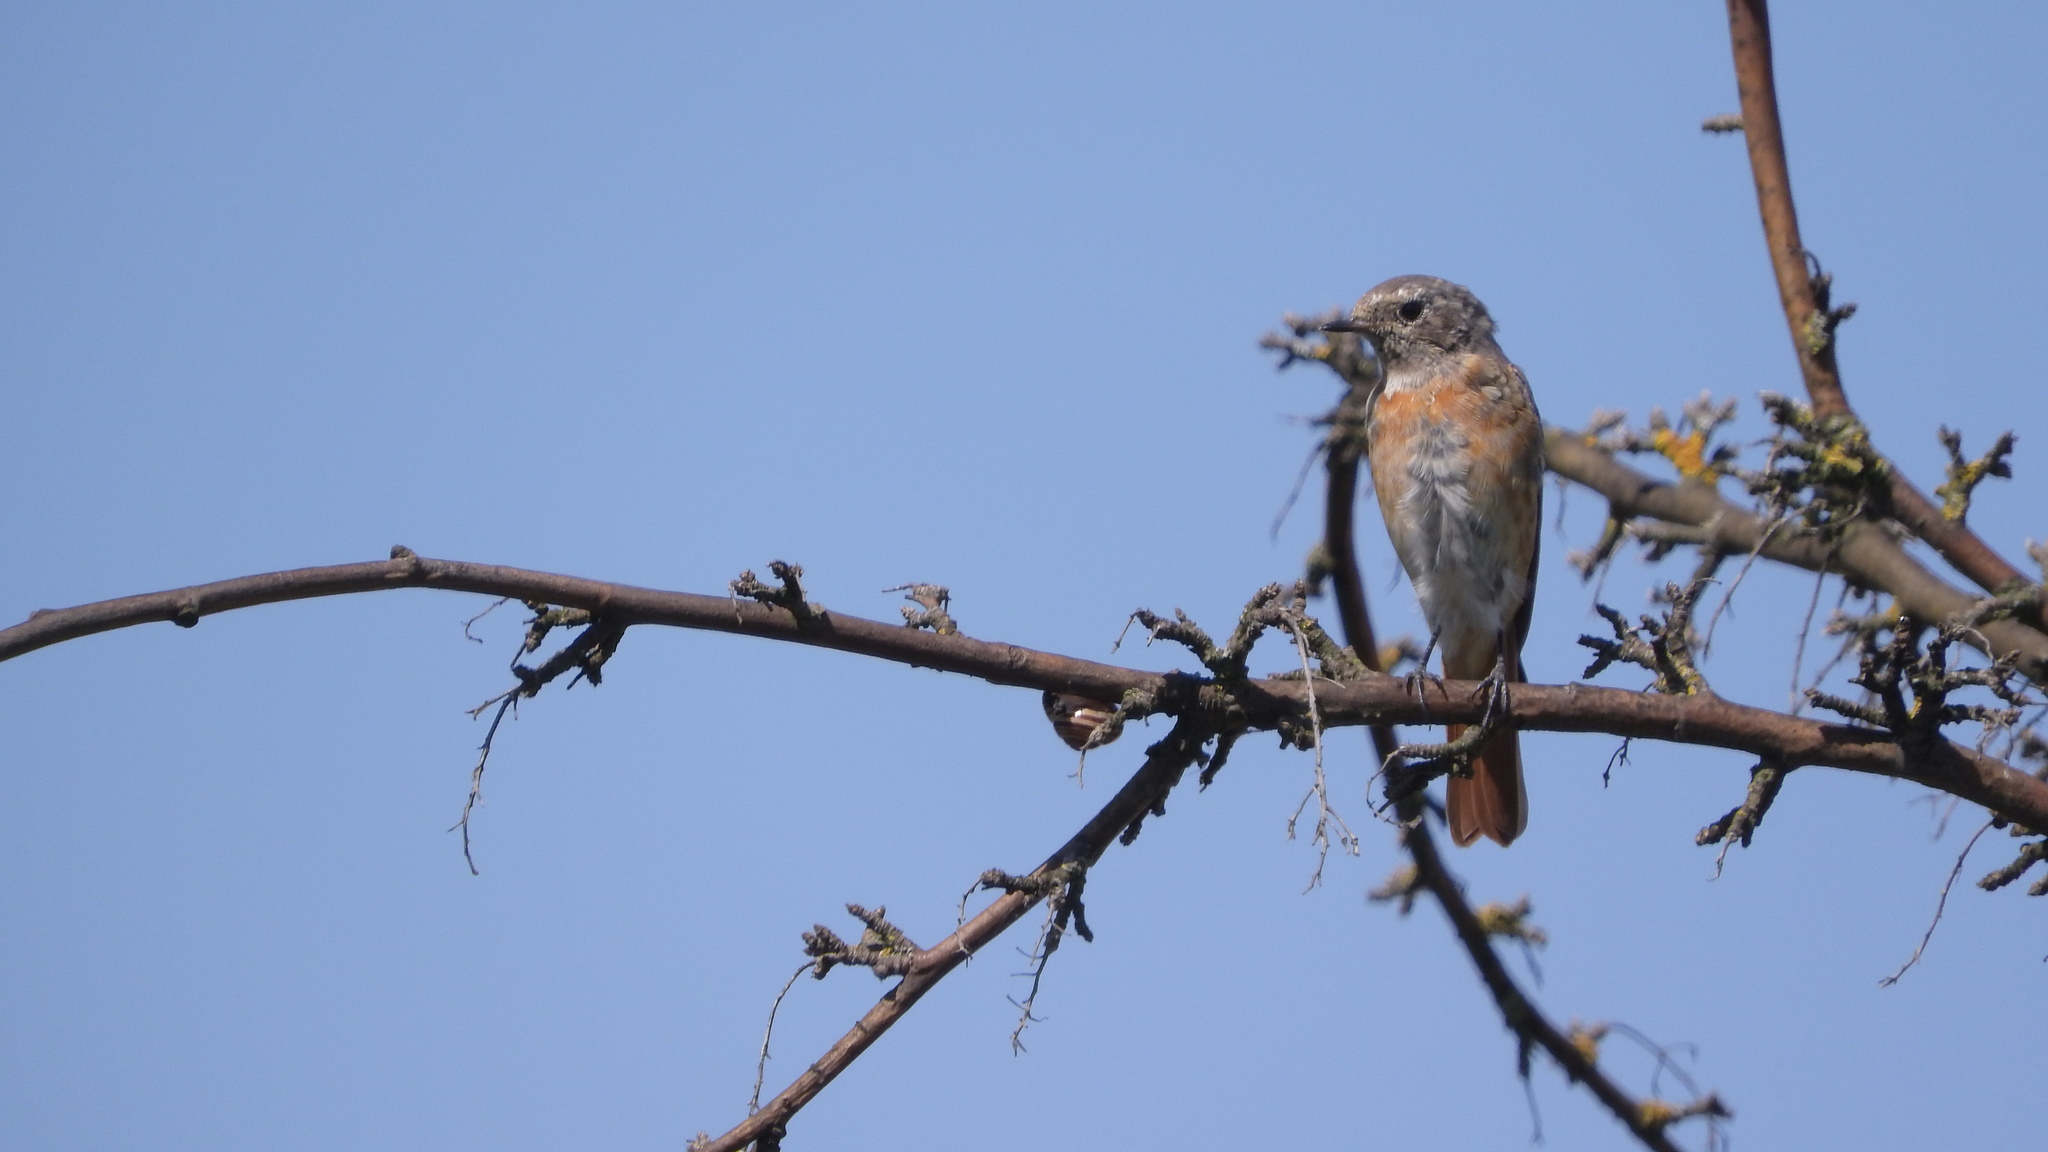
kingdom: Animalia
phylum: Chordata
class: Aves
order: Passeriformes
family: Muscicapidae
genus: Phoenicurus
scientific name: Phoenicurus phoenicurus
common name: Common redstart
